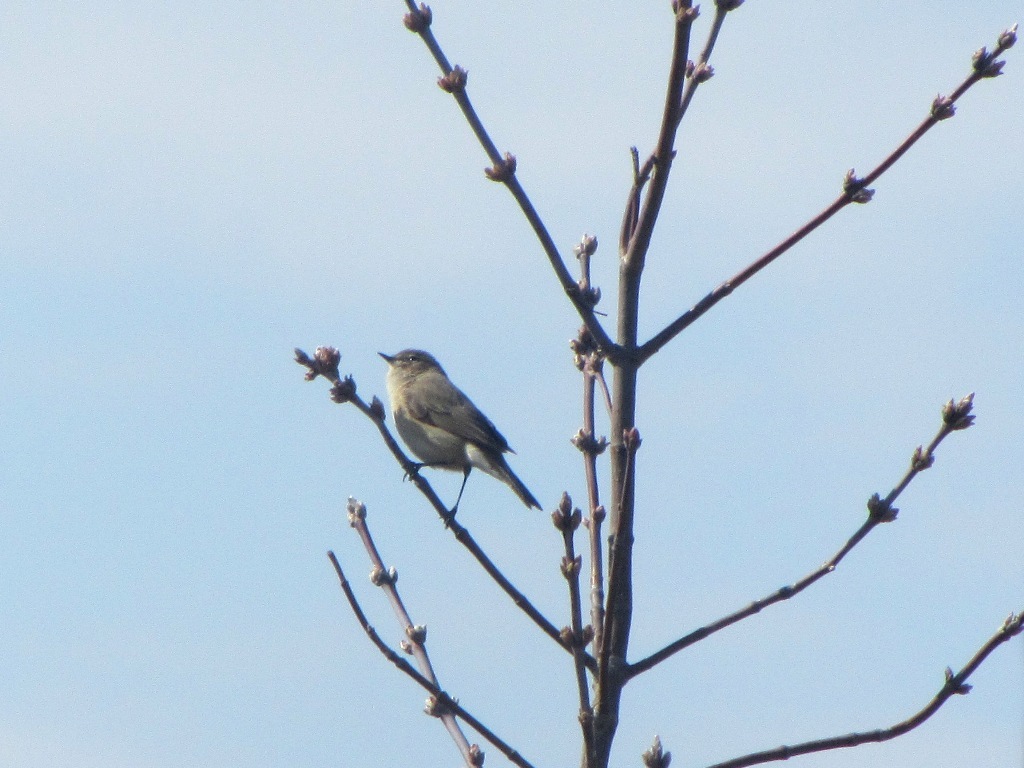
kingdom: Animalia
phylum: Chordata
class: Aves
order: Passeriformes
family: Phylloscopidae
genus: Phylloscopus
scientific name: Phylloscopus collybita
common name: Common chiffchaff
